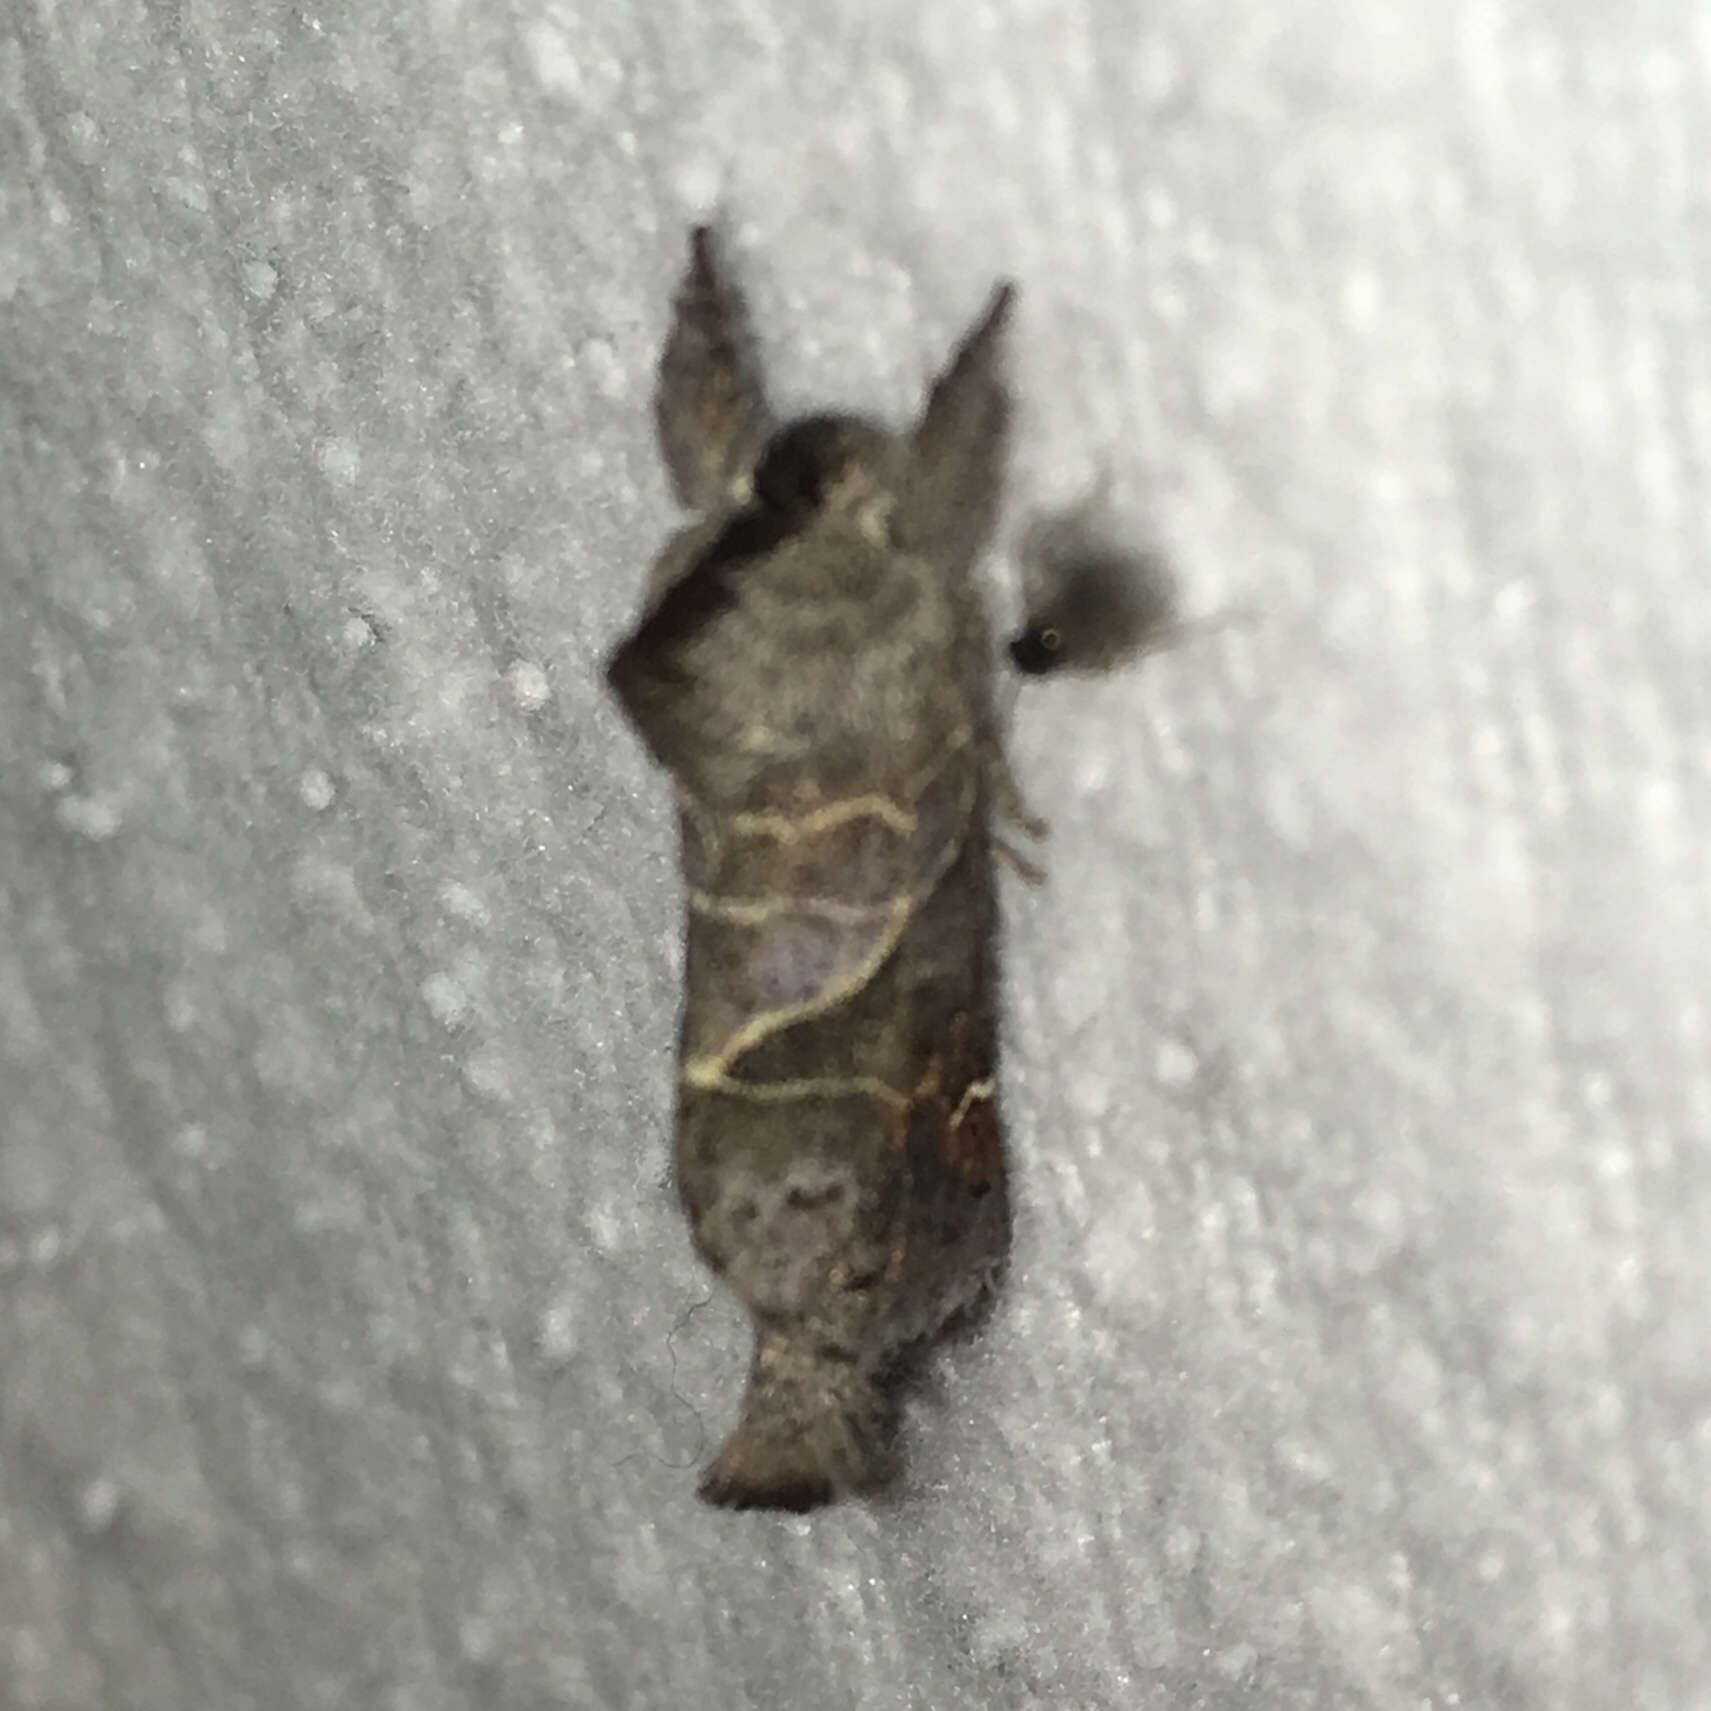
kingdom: Animalia
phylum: Arthropoda
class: Insecta
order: Lepidoptera
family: Notodontidae
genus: Clostera
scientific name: Clostera apicalis
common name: Apical prominent
